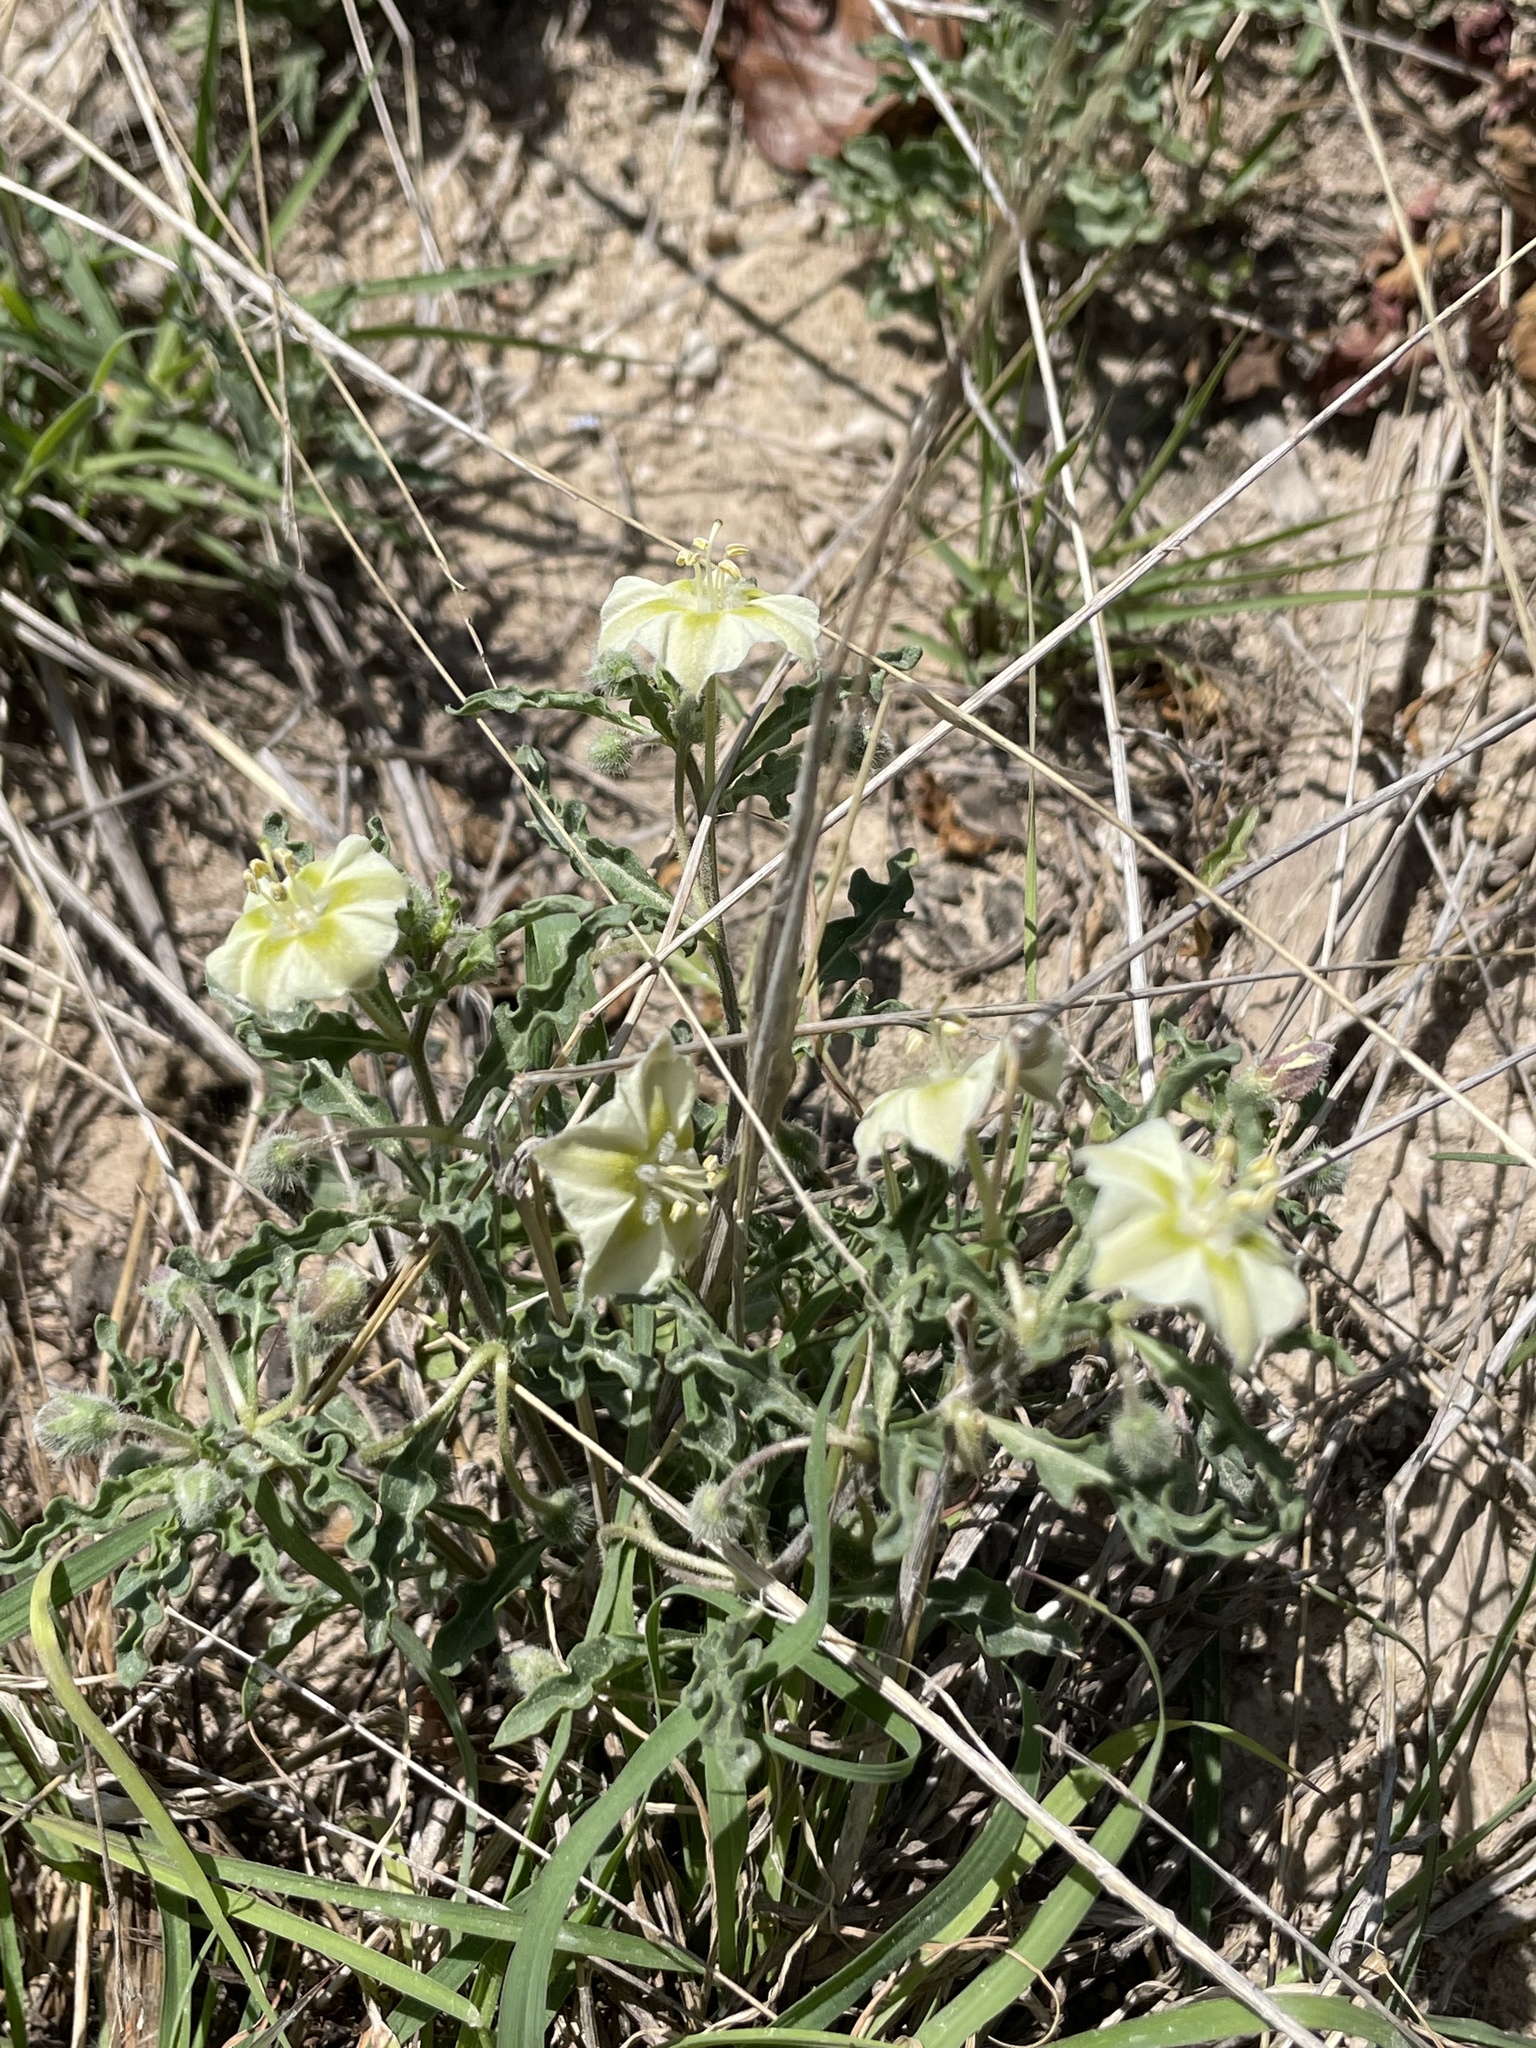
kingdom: Plantae
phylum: Tracheophyta
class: Magnoliopsida
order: Solanales
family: Solanaceae
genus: Chamaesaracha
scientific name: Chamaesaracha edwardsiana
